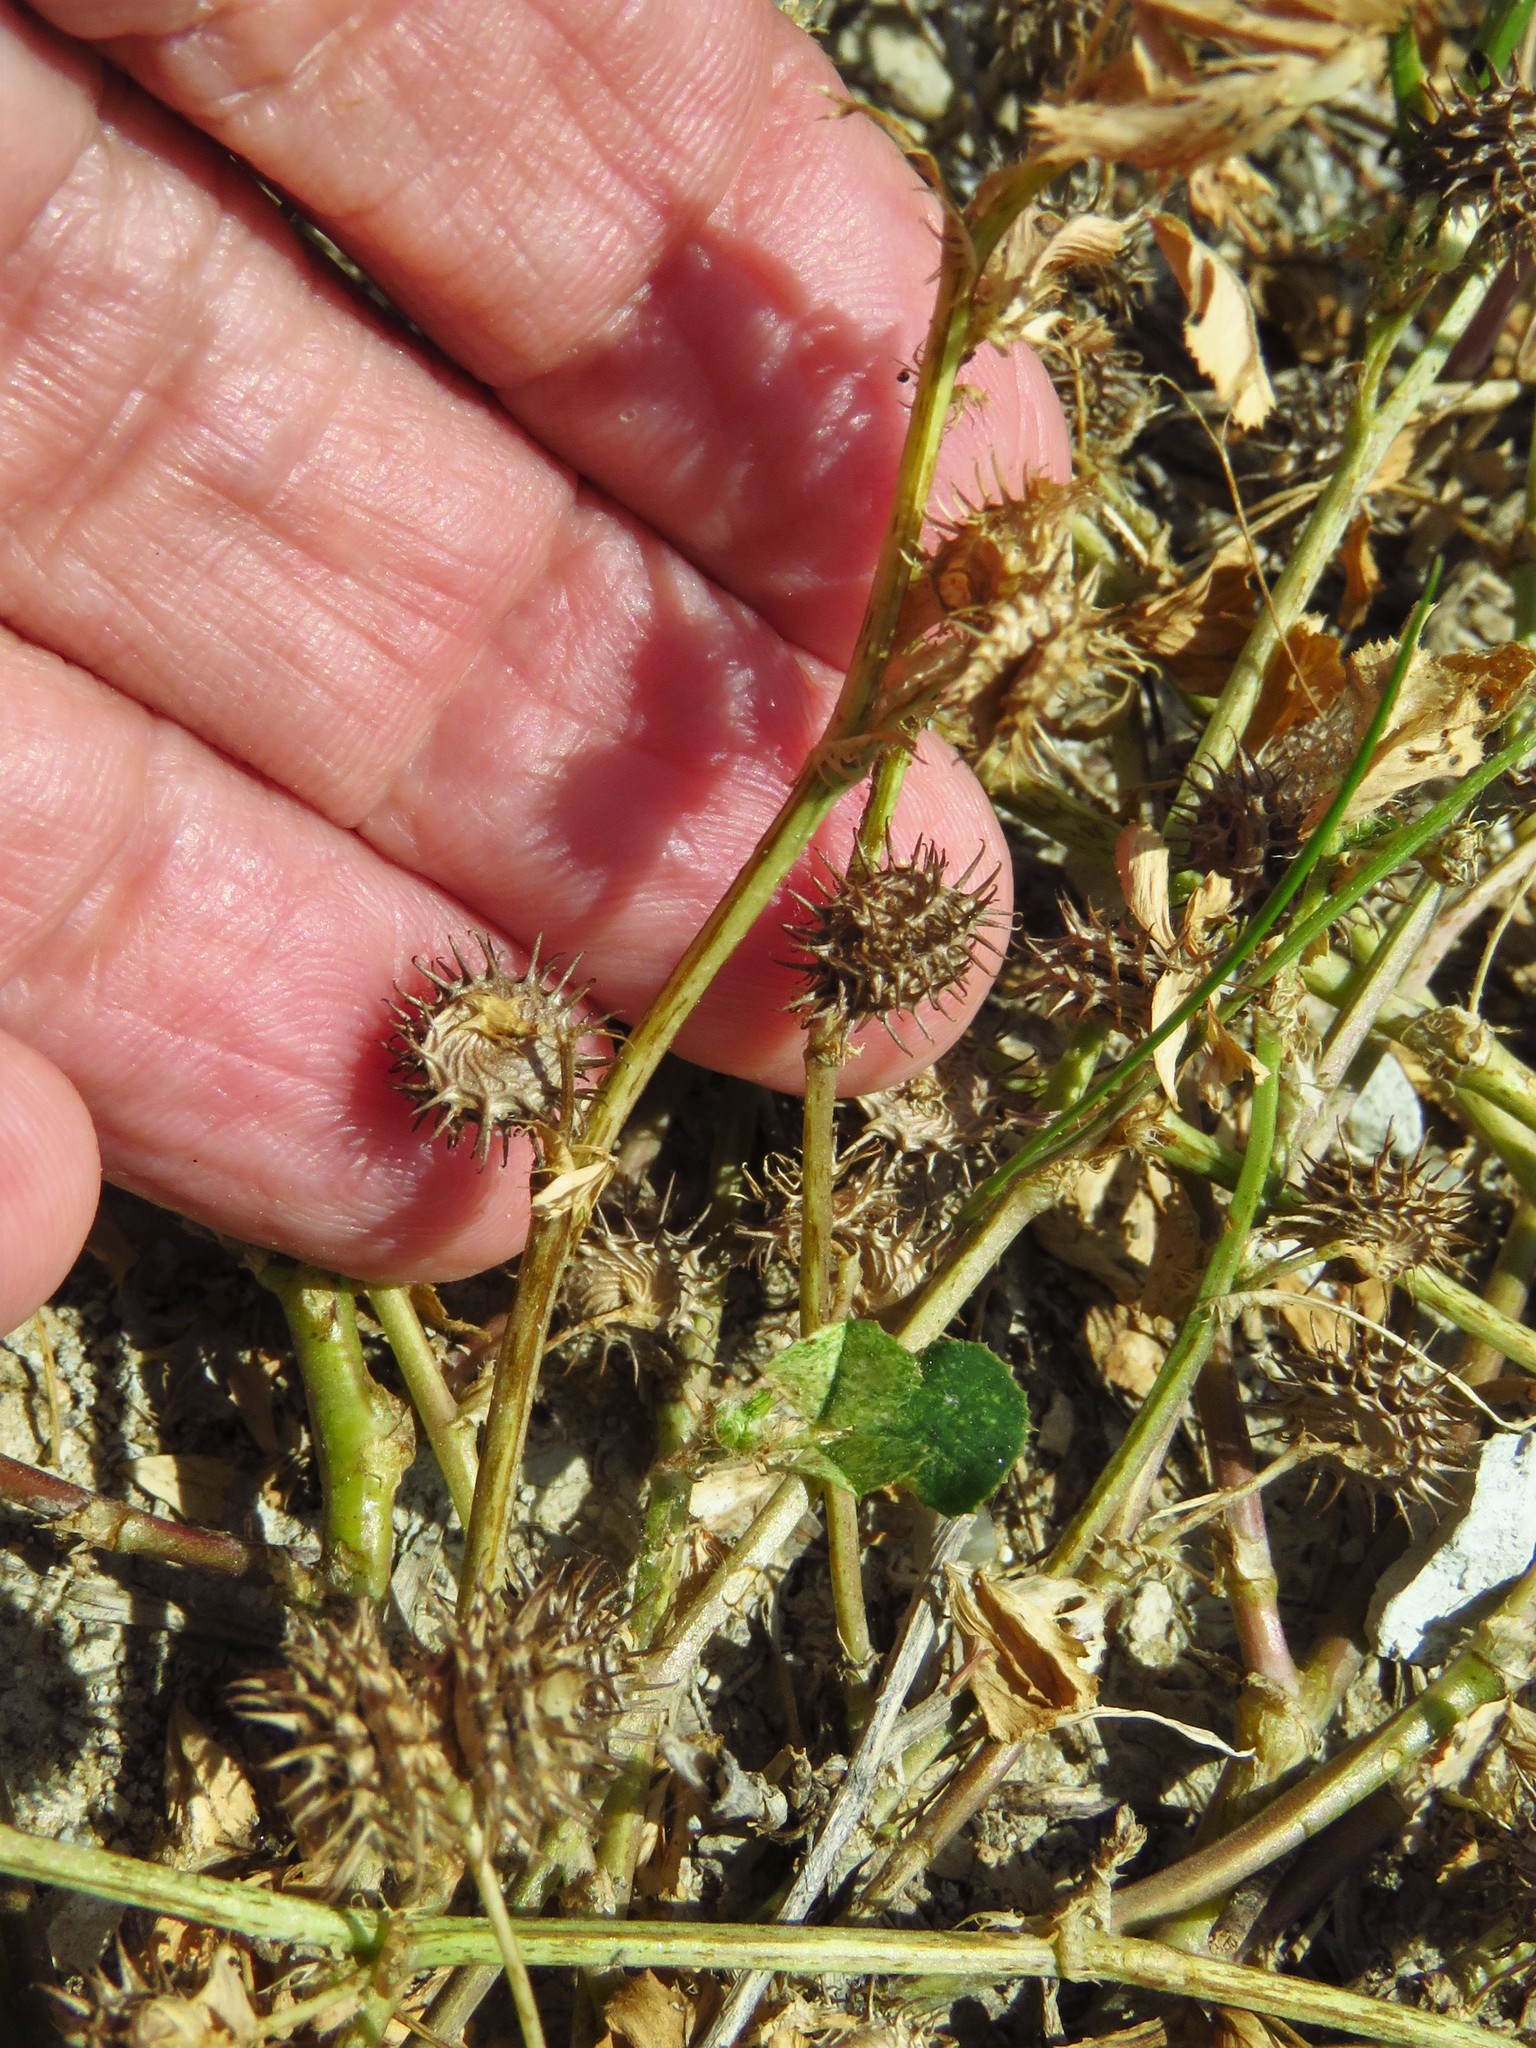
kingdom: Plantae
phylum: Tracheophyta
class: Magnoliopsida
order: Fabales
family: Fabaceae
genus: Medicago
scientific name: Medicago minima
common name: Little bur-clover
